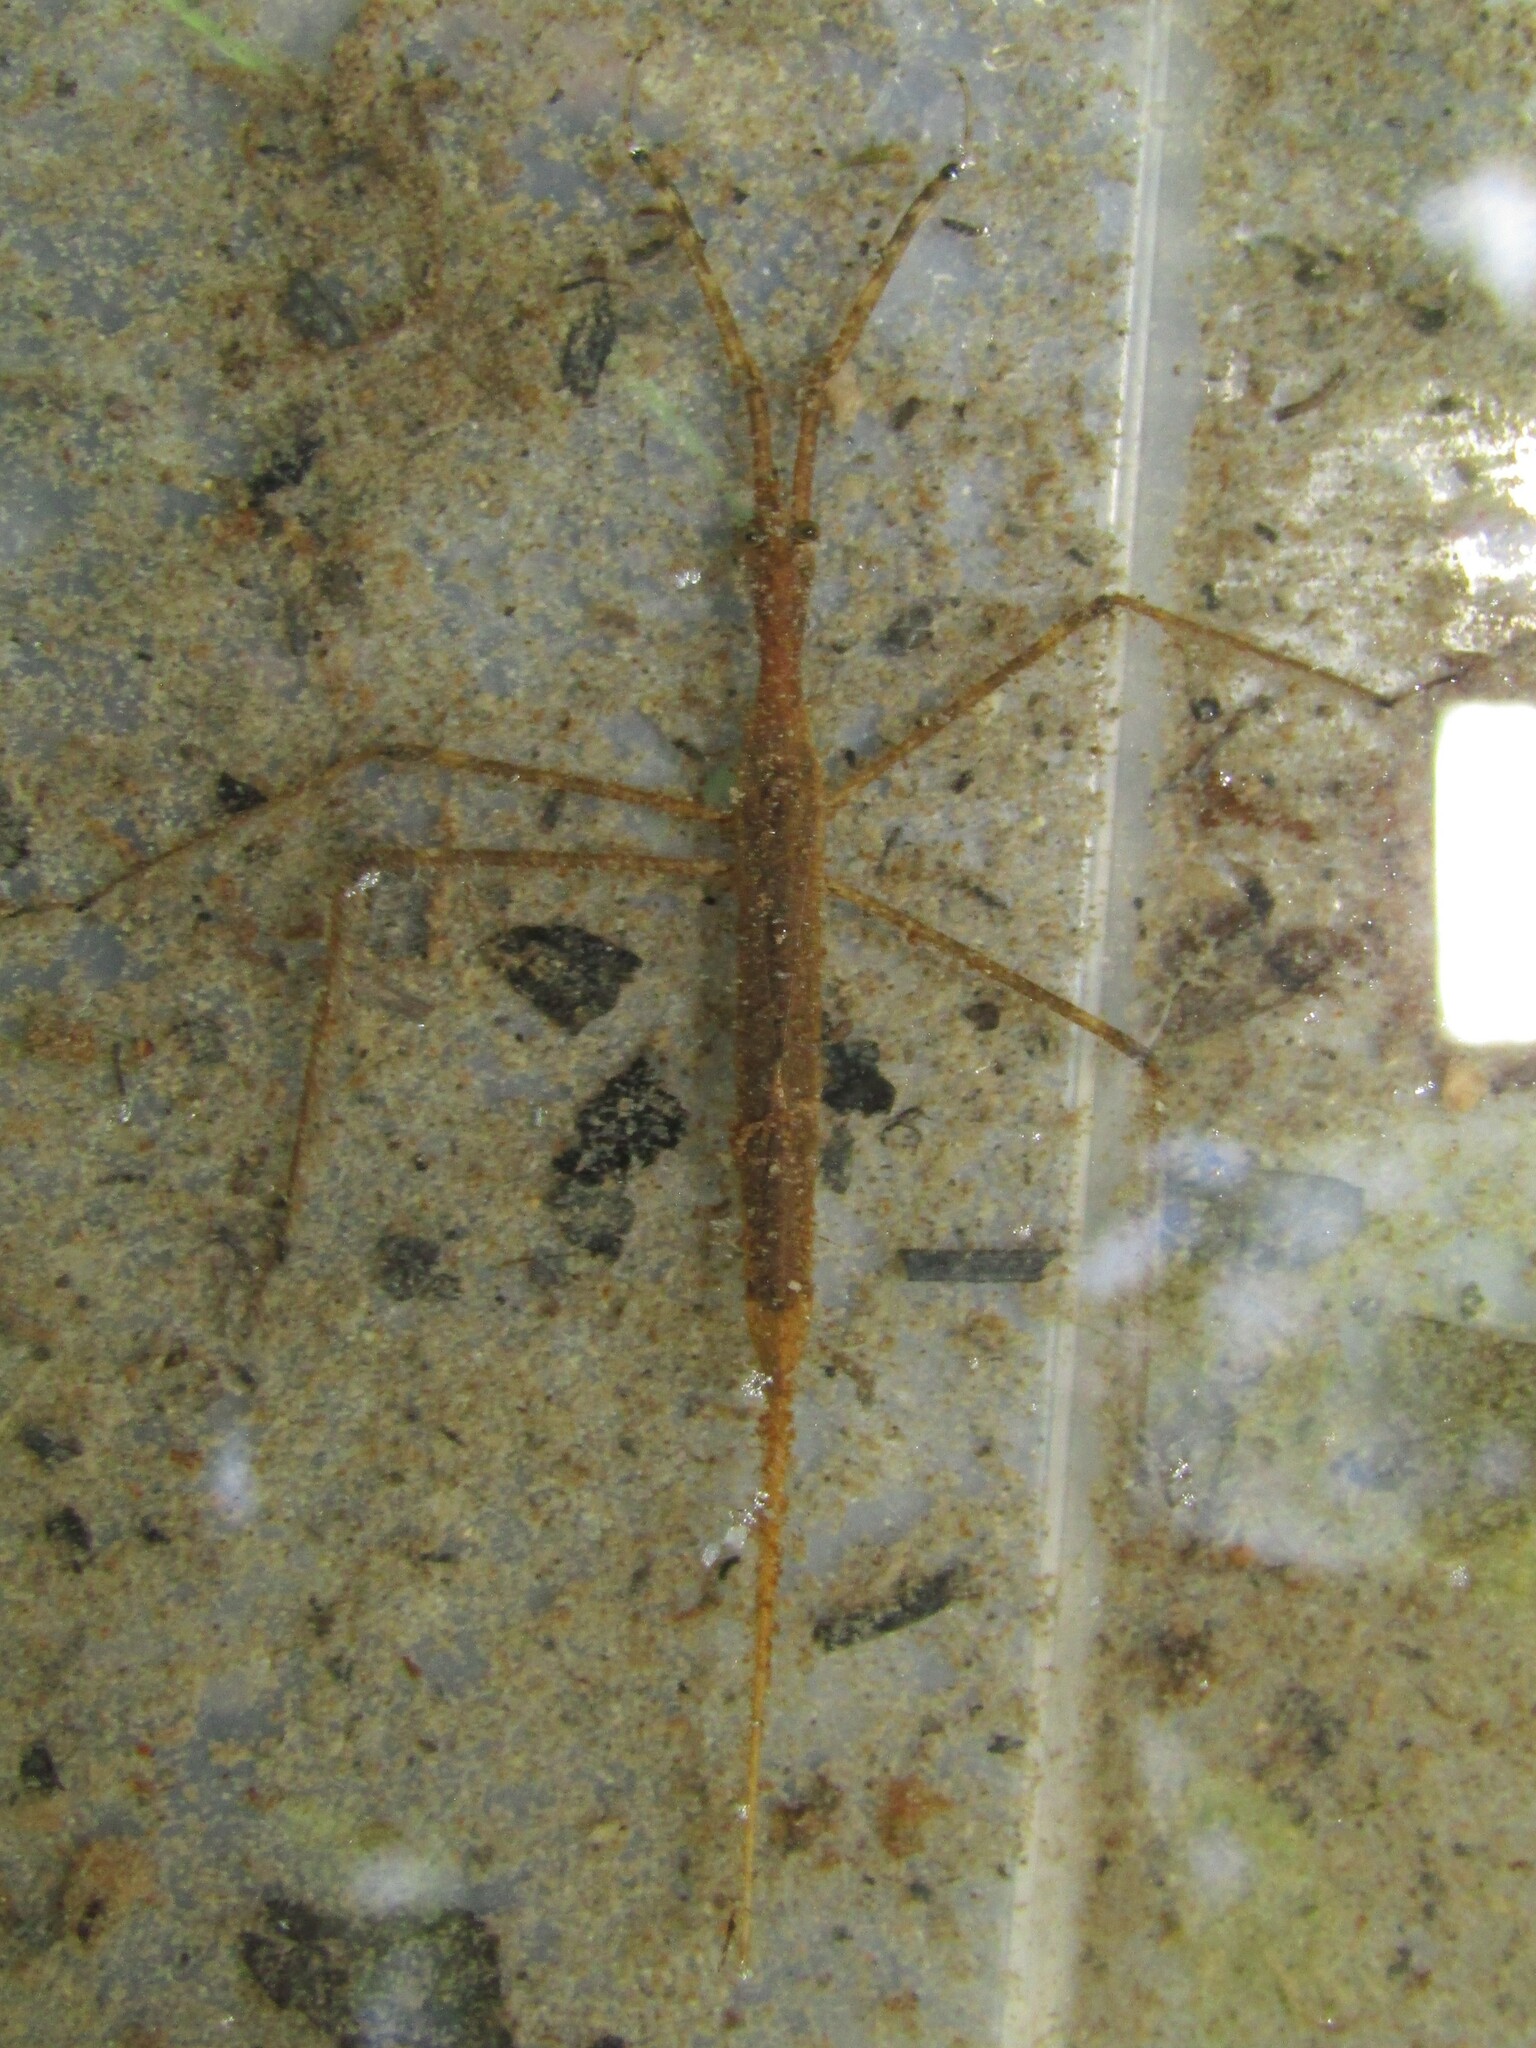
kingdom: Animalia
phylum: Arthropoda
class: Insecta
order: Hemiptera
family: Nepidae
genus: Ranatra
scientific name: Ranatra
